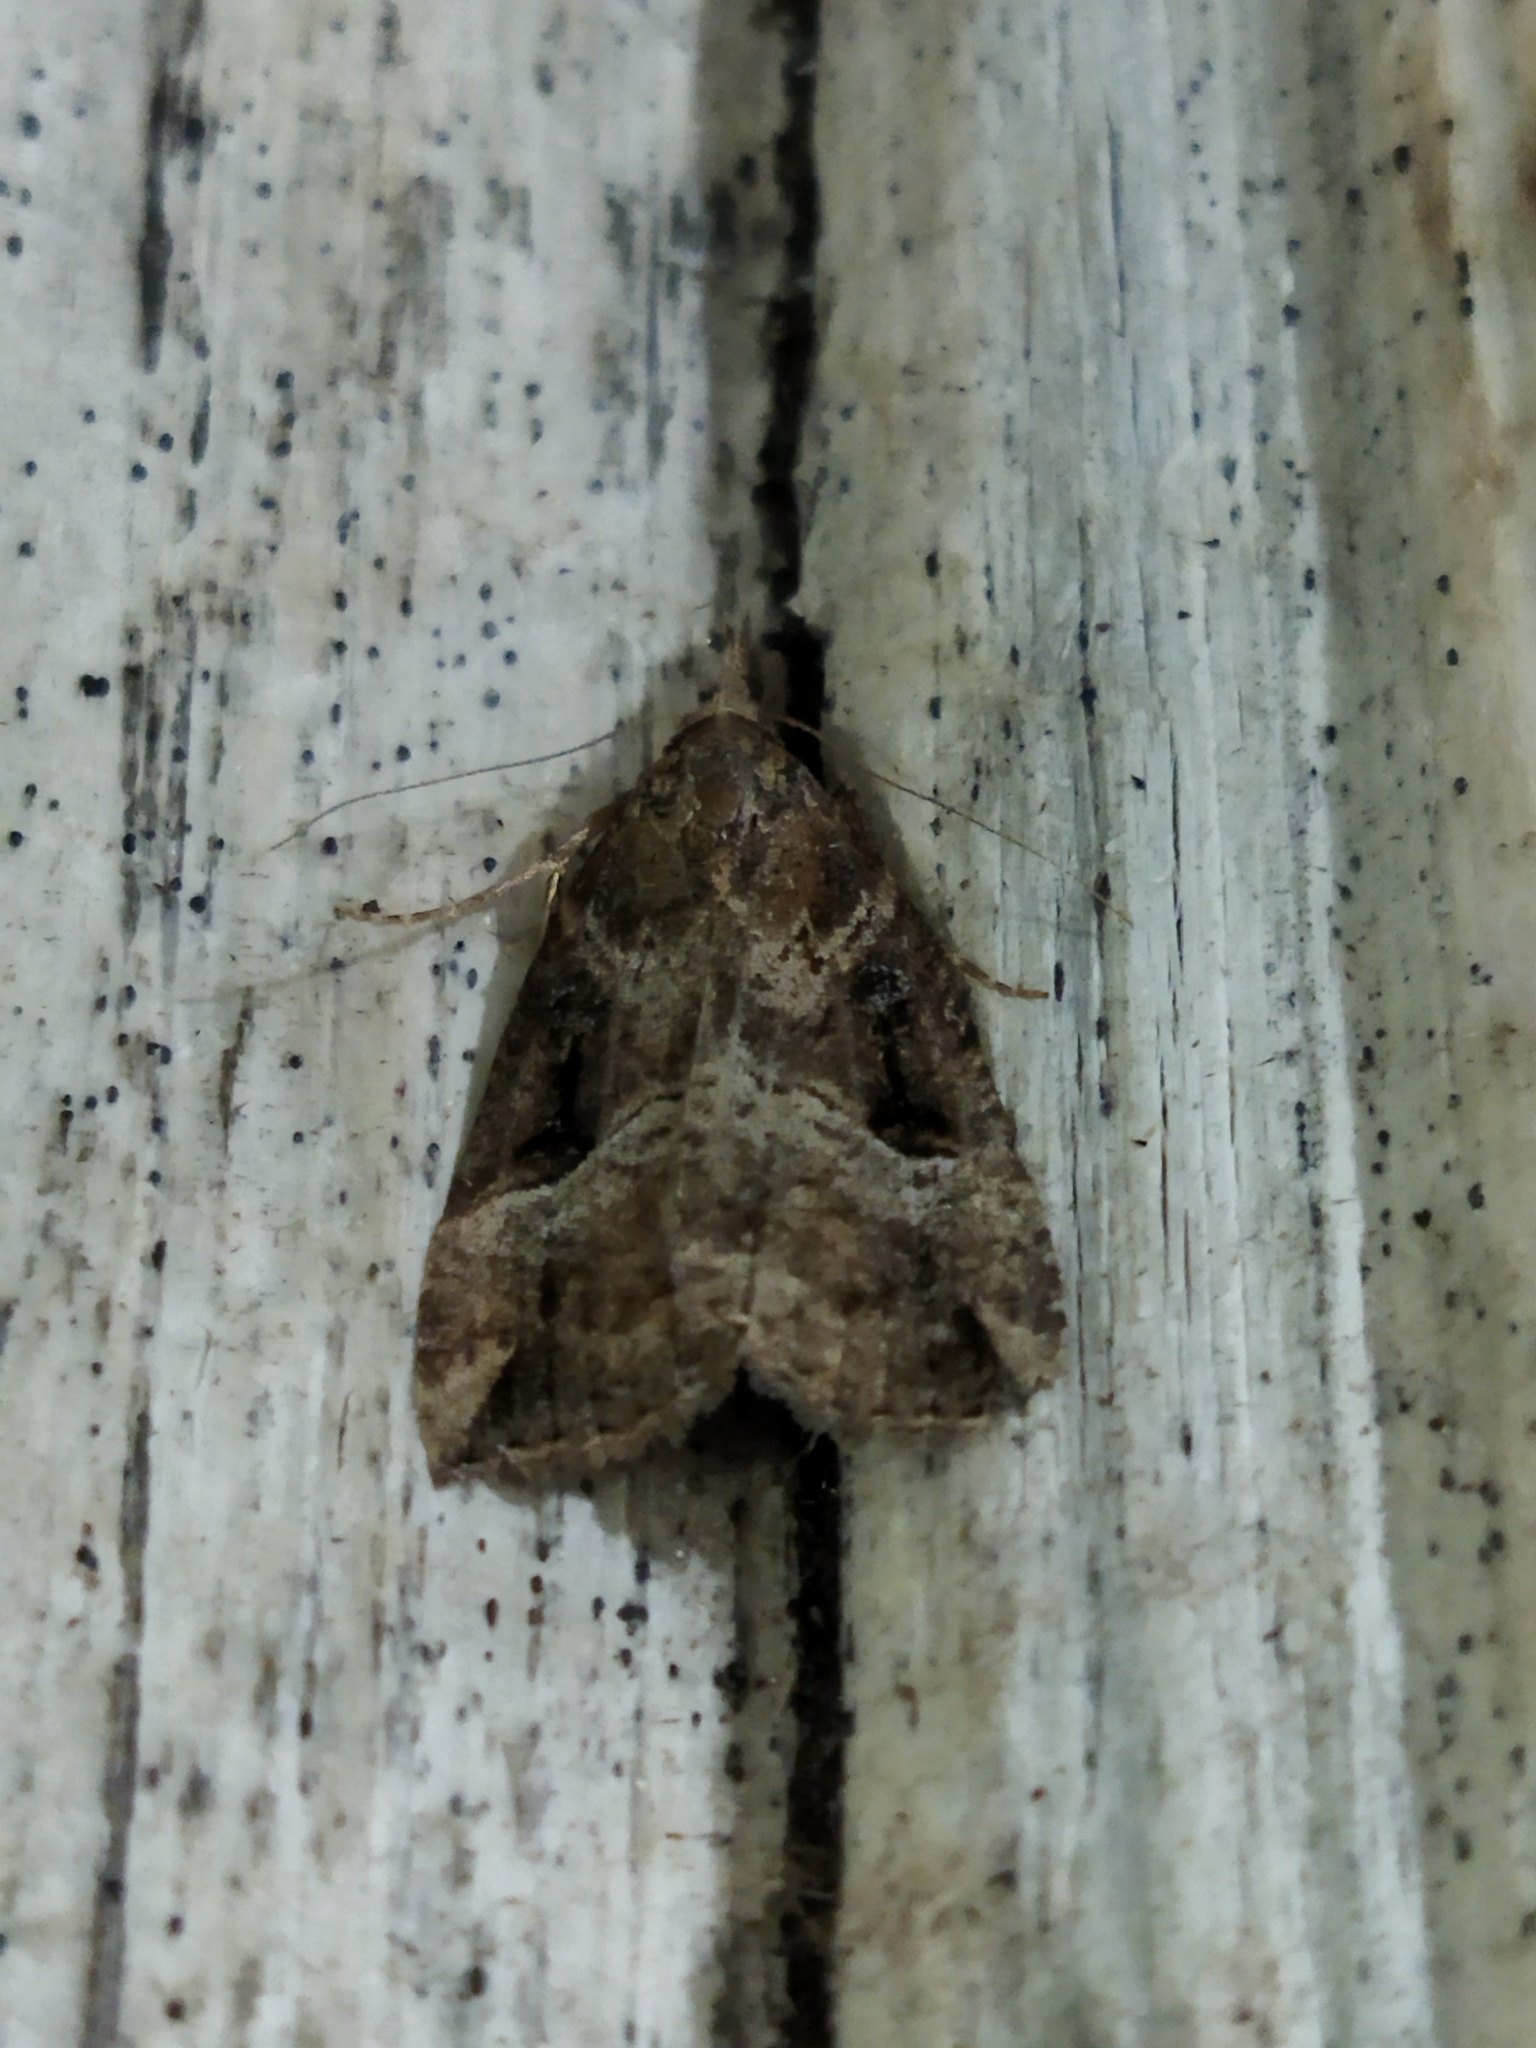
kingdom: Animalia
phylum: Arthropoda
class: Insecta
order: Lepidoptera
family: Erebidae
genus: Hypena
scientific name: Hypena rostralis
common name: Buttoned snout
